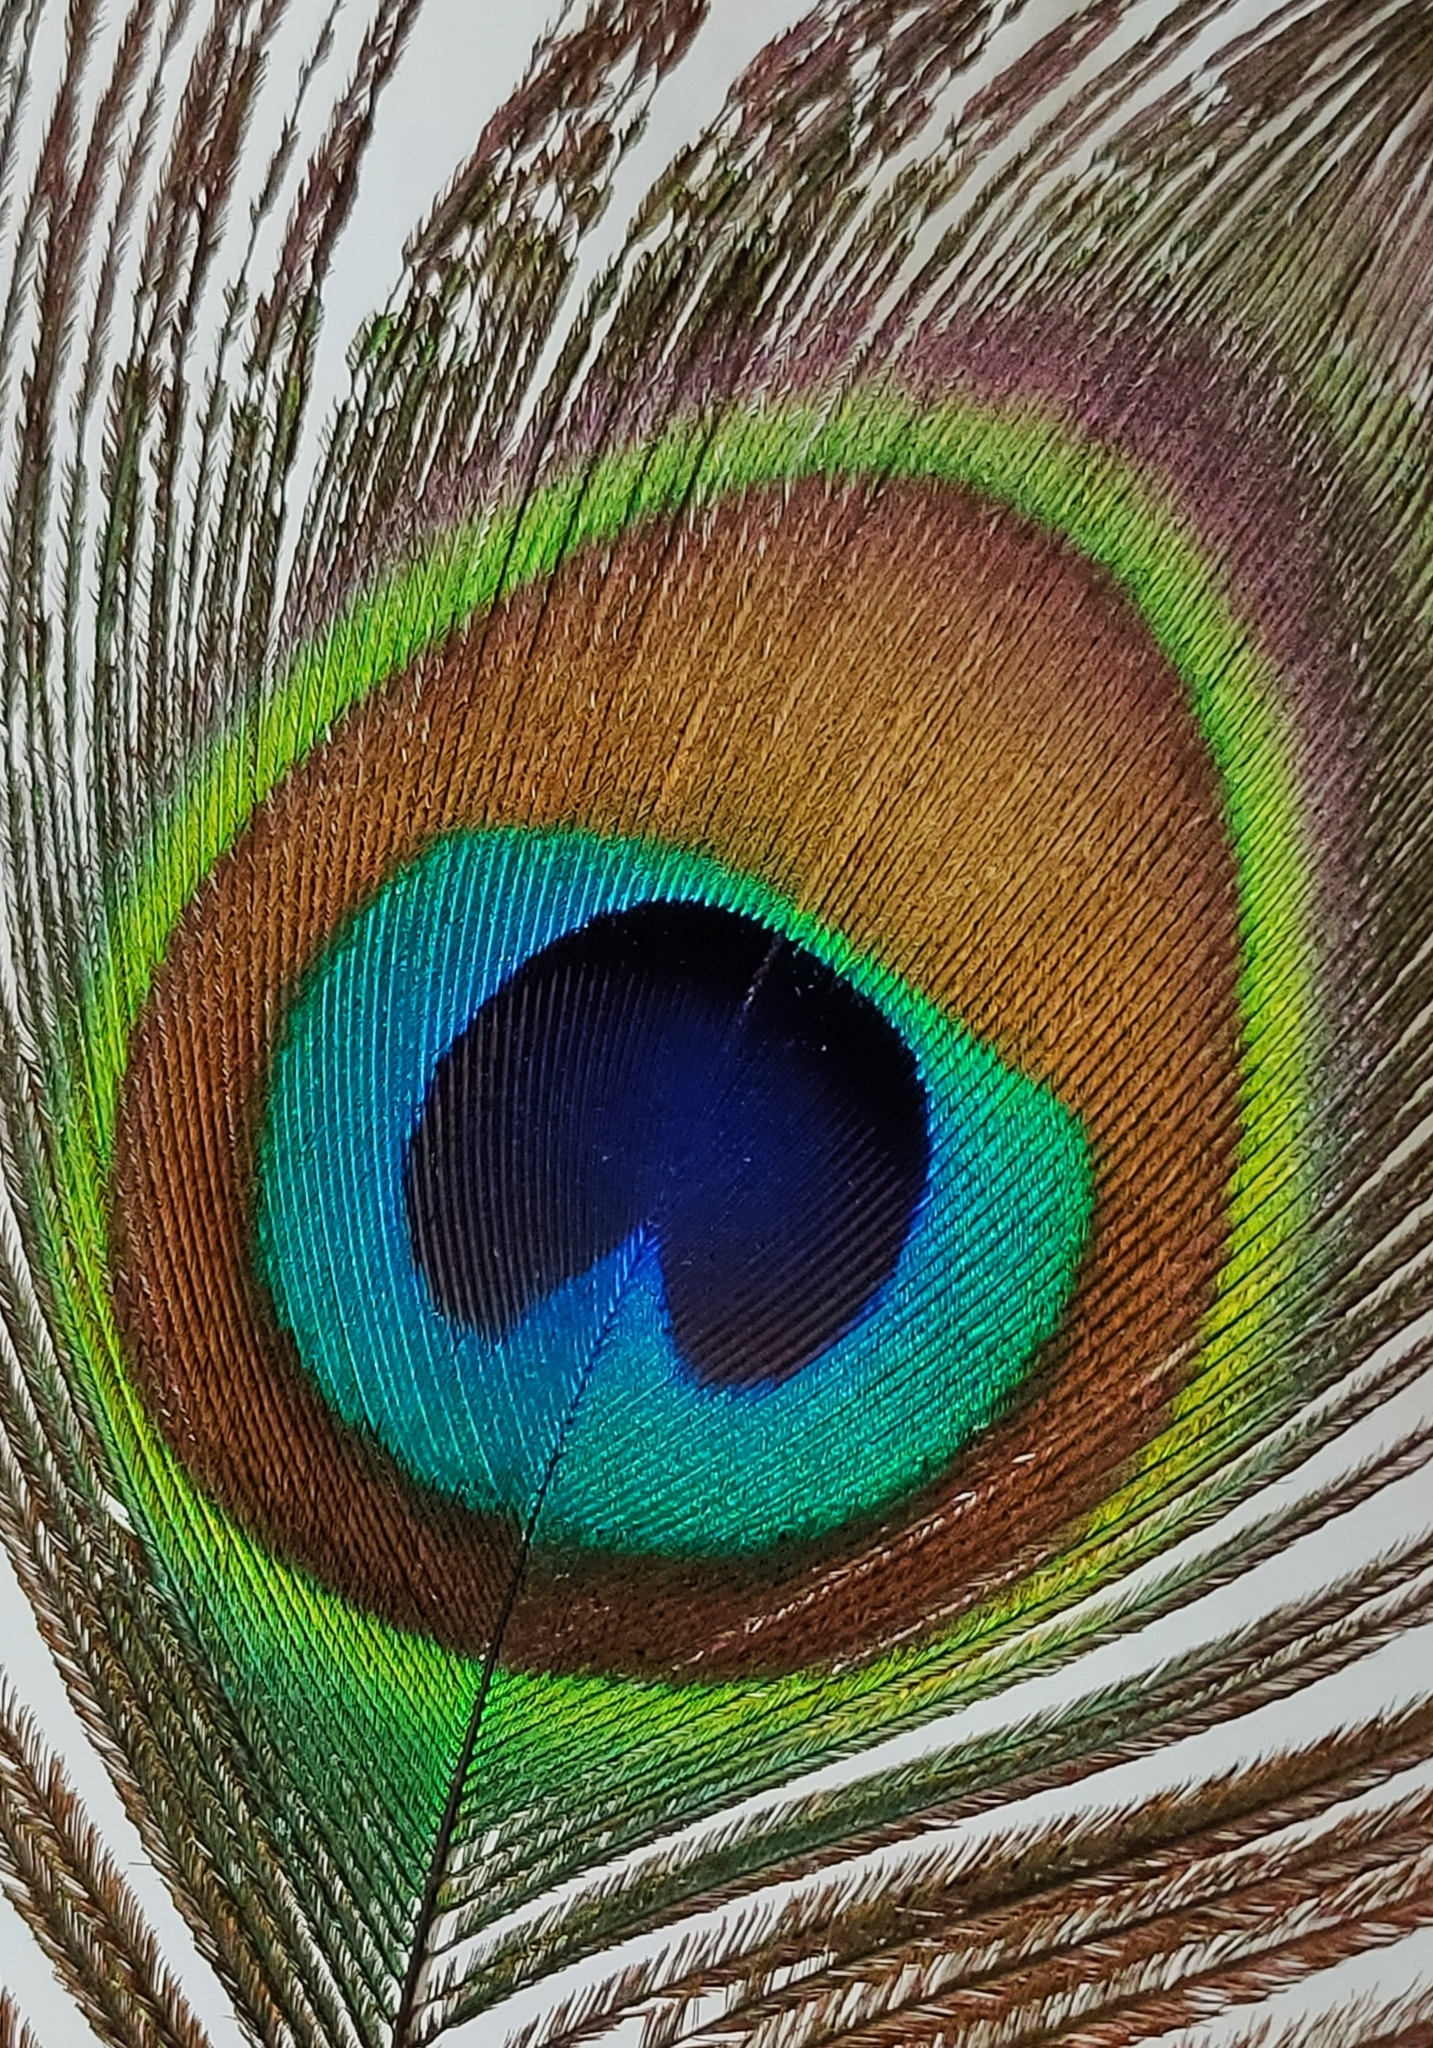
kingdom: Animalia
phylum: Chordata
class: Aves
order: Galliformes
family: Phasianidae
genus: Pavo
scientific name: Pavo cristatus
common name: Indian peafowl
